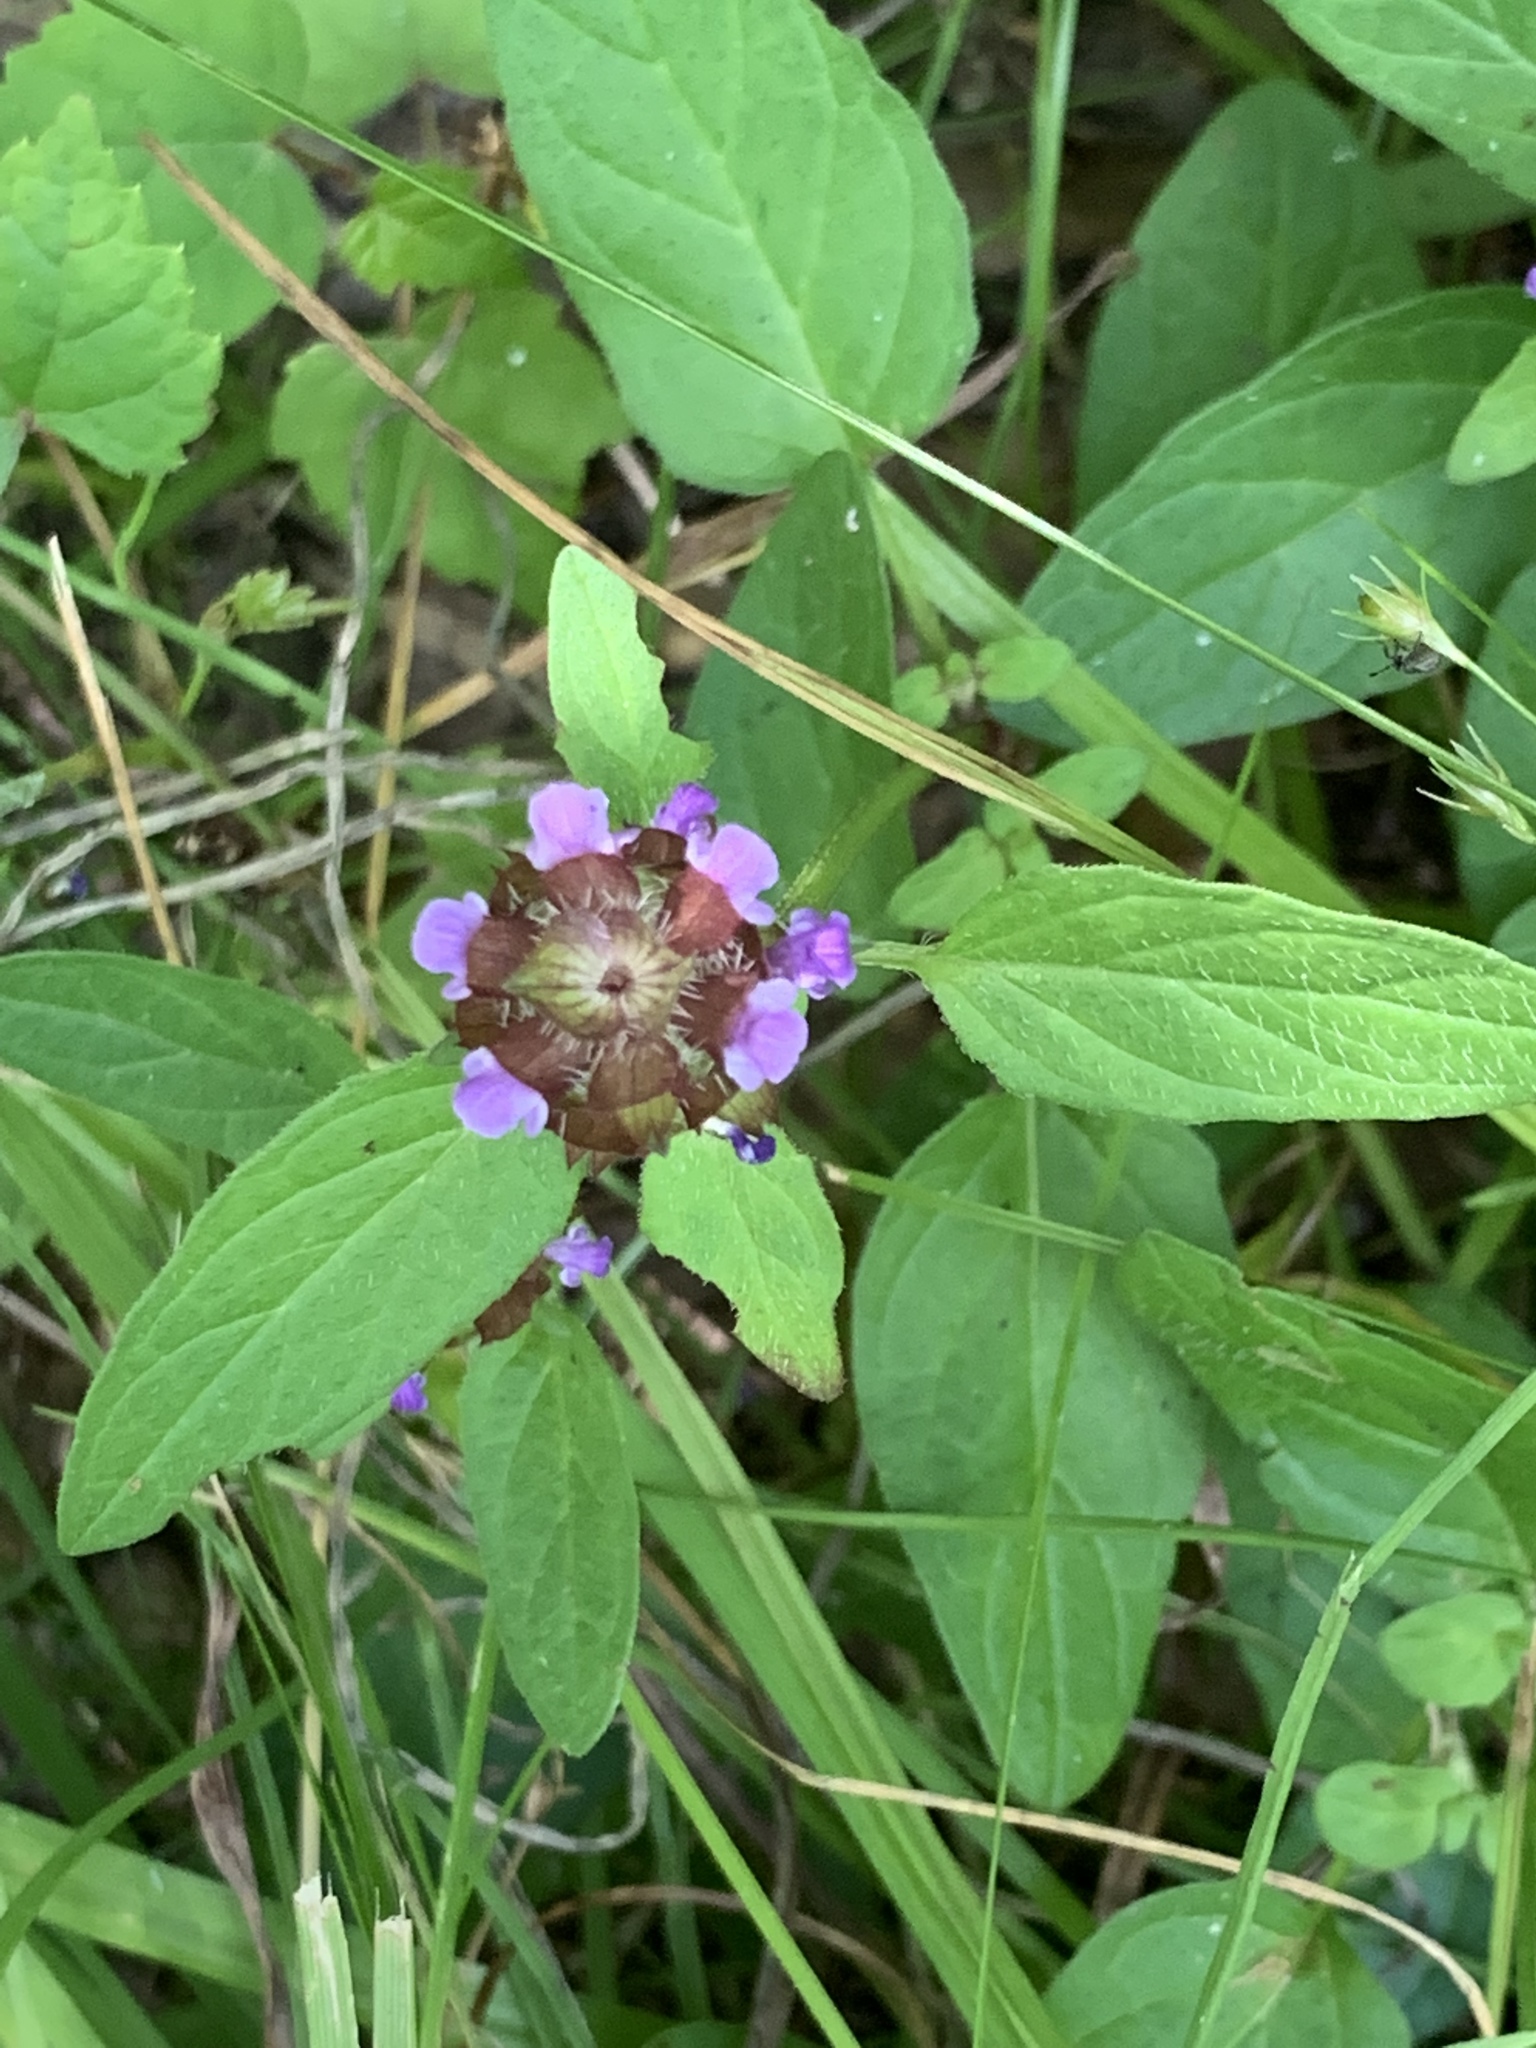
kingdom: Plantae
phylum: Tracheophyta
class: Magnoliopsida
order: Lamiales
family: Lamiaceae
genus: Prunella
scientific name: Prunella vulgaris
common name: Heal-all
